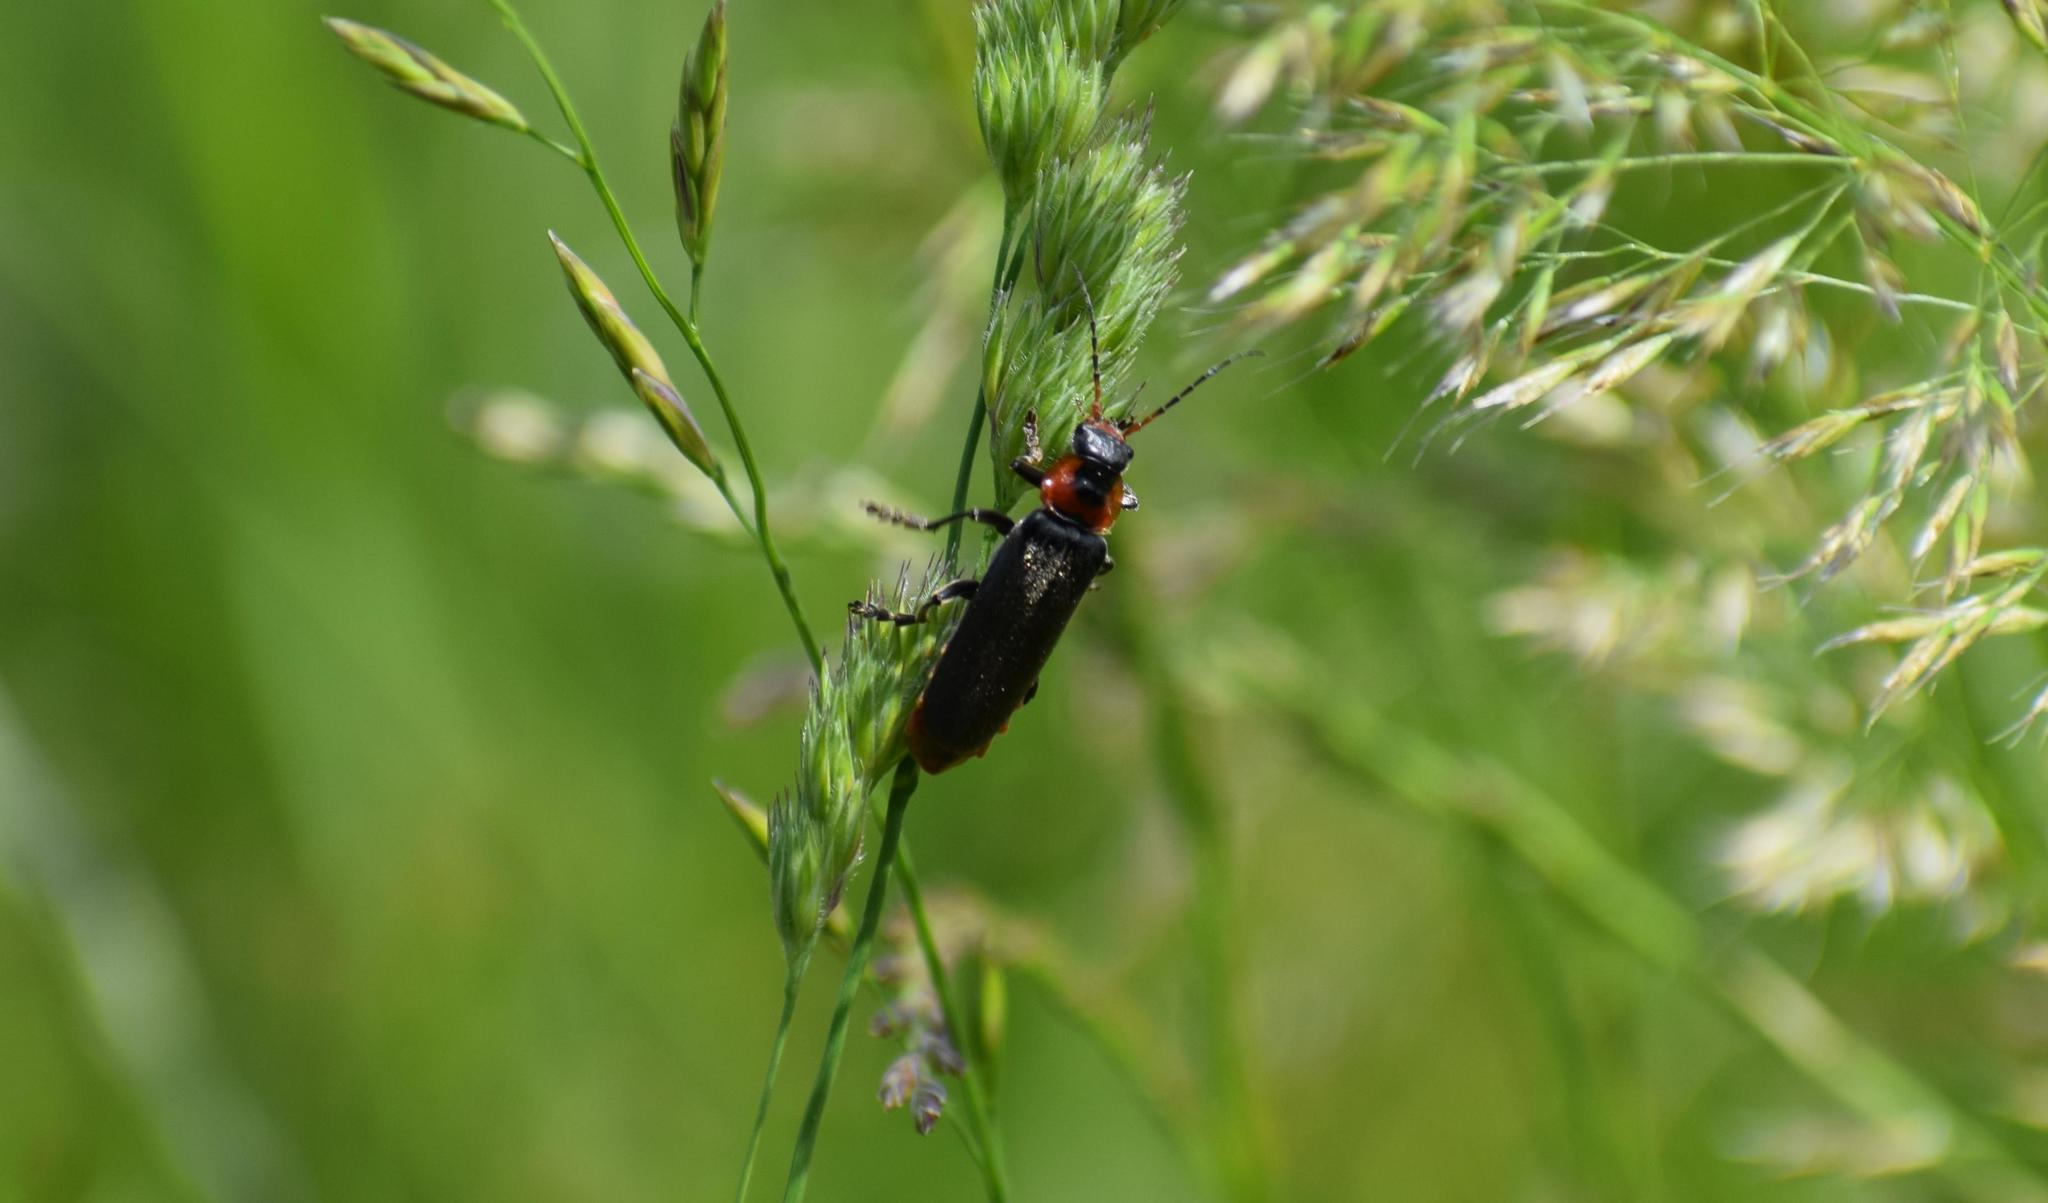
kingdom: Animalia
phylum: Arthropoda
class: Insecta
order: Coleoptera
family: Cantharidae
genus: Cantharis
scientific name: Cantharis fusca
